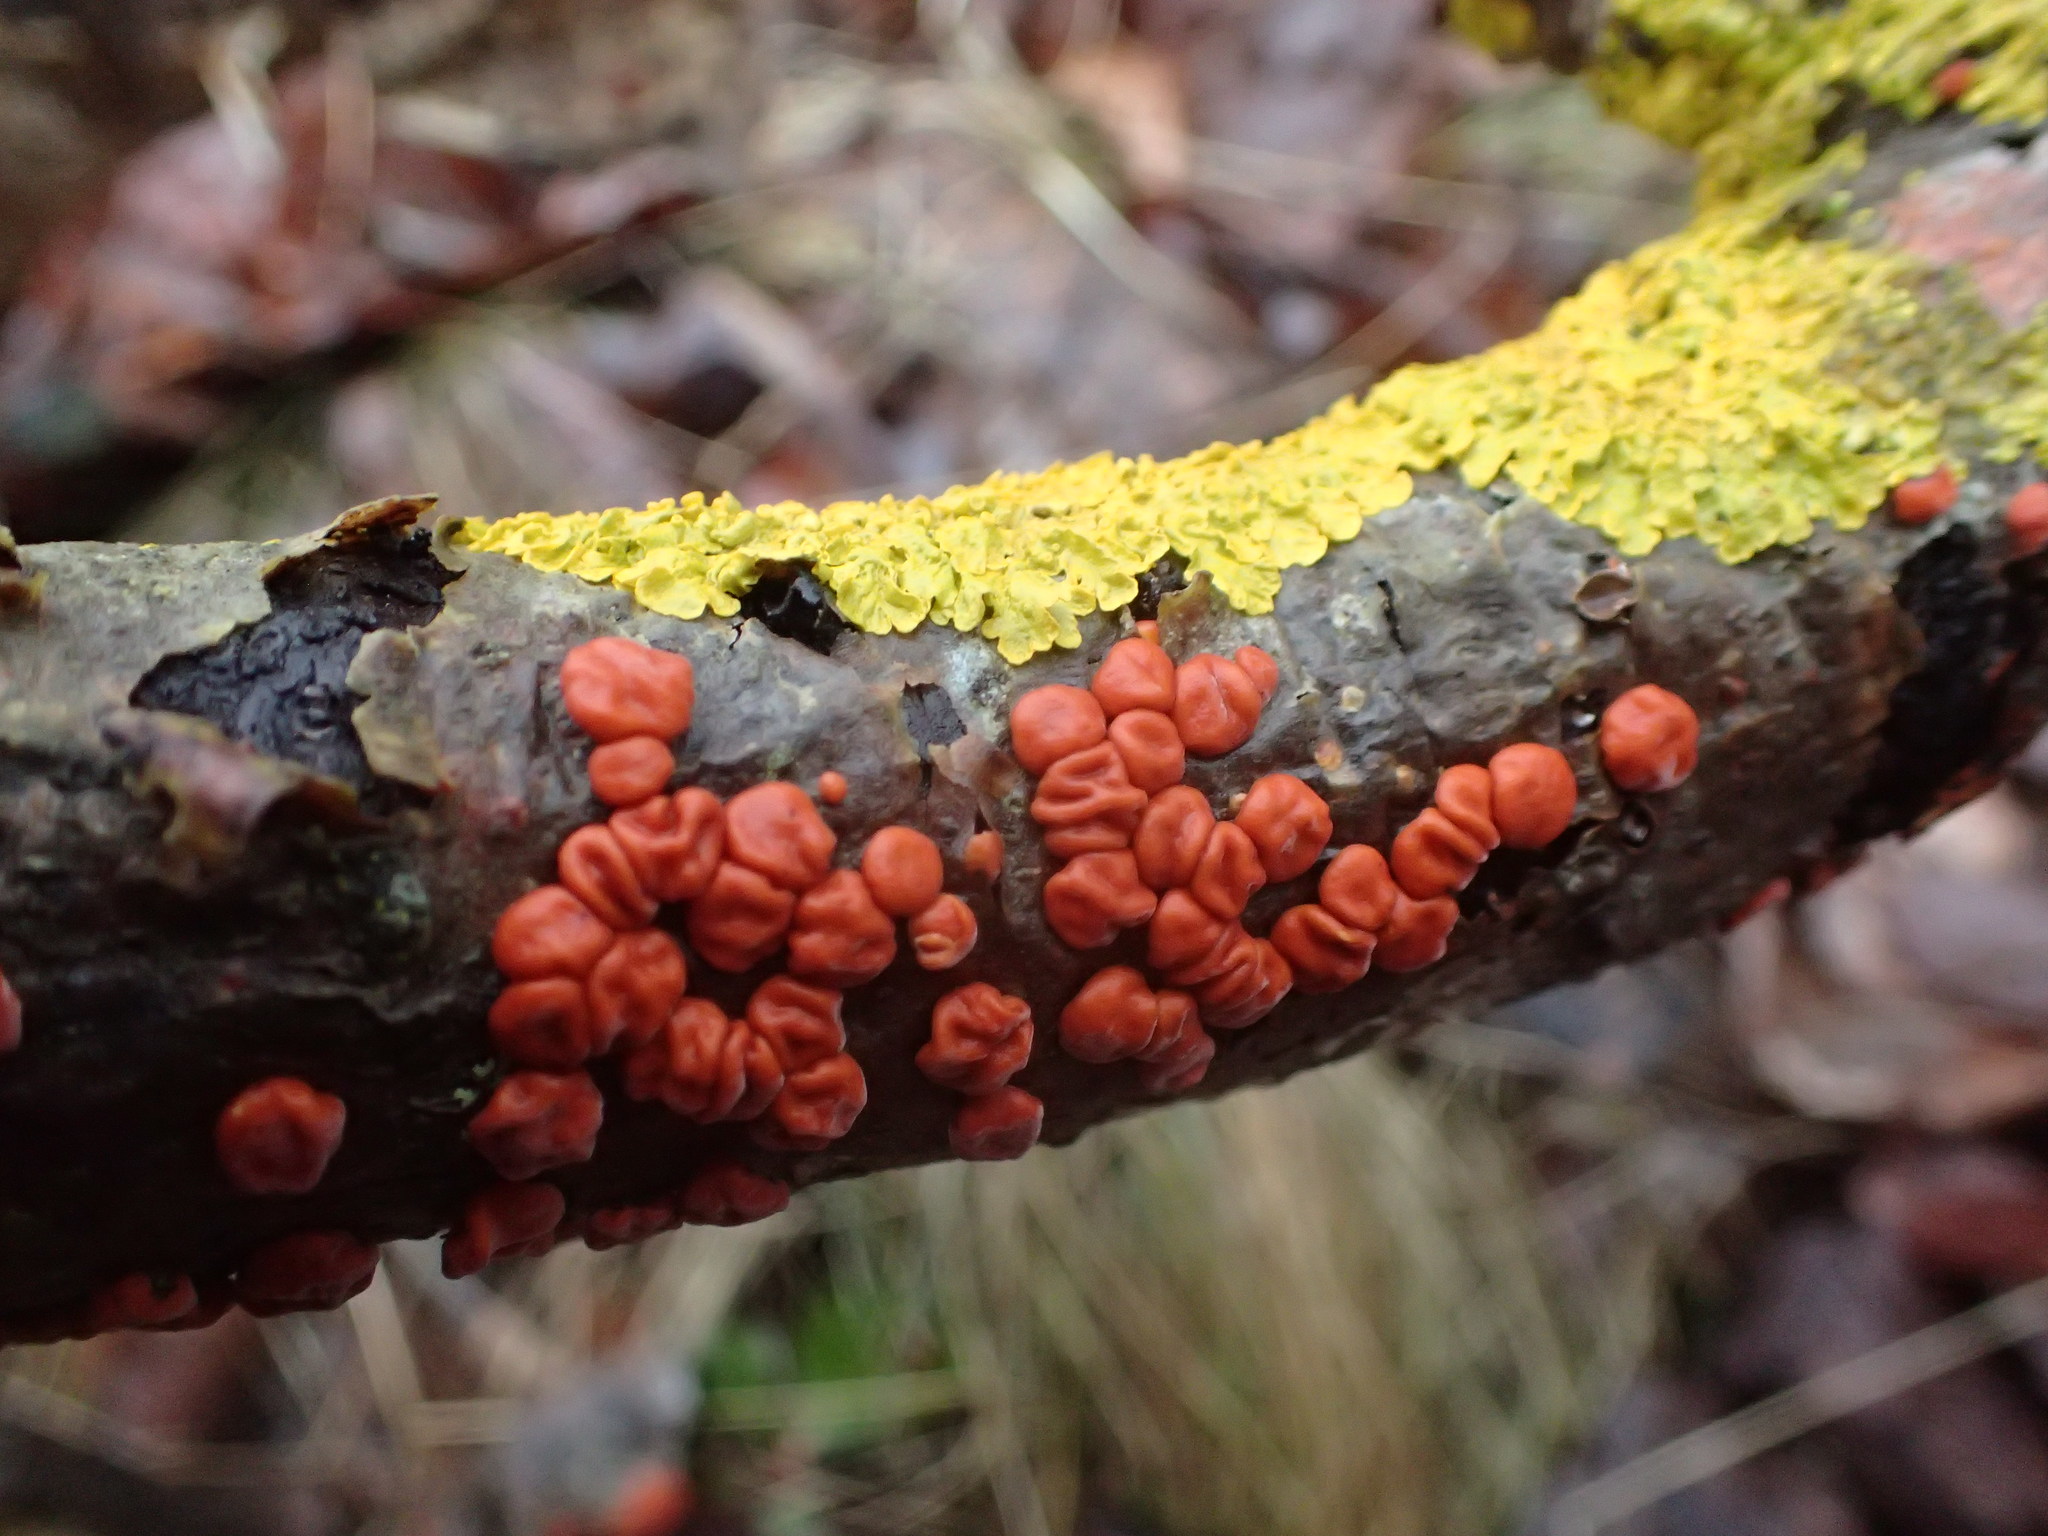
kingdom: Fungi
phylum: Basidiomycota
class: Agaricomycetes
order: Russulales
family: Peniophoraceae
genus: Peniophora
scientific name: Peniophora rufa
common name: Red tree brain fungus
